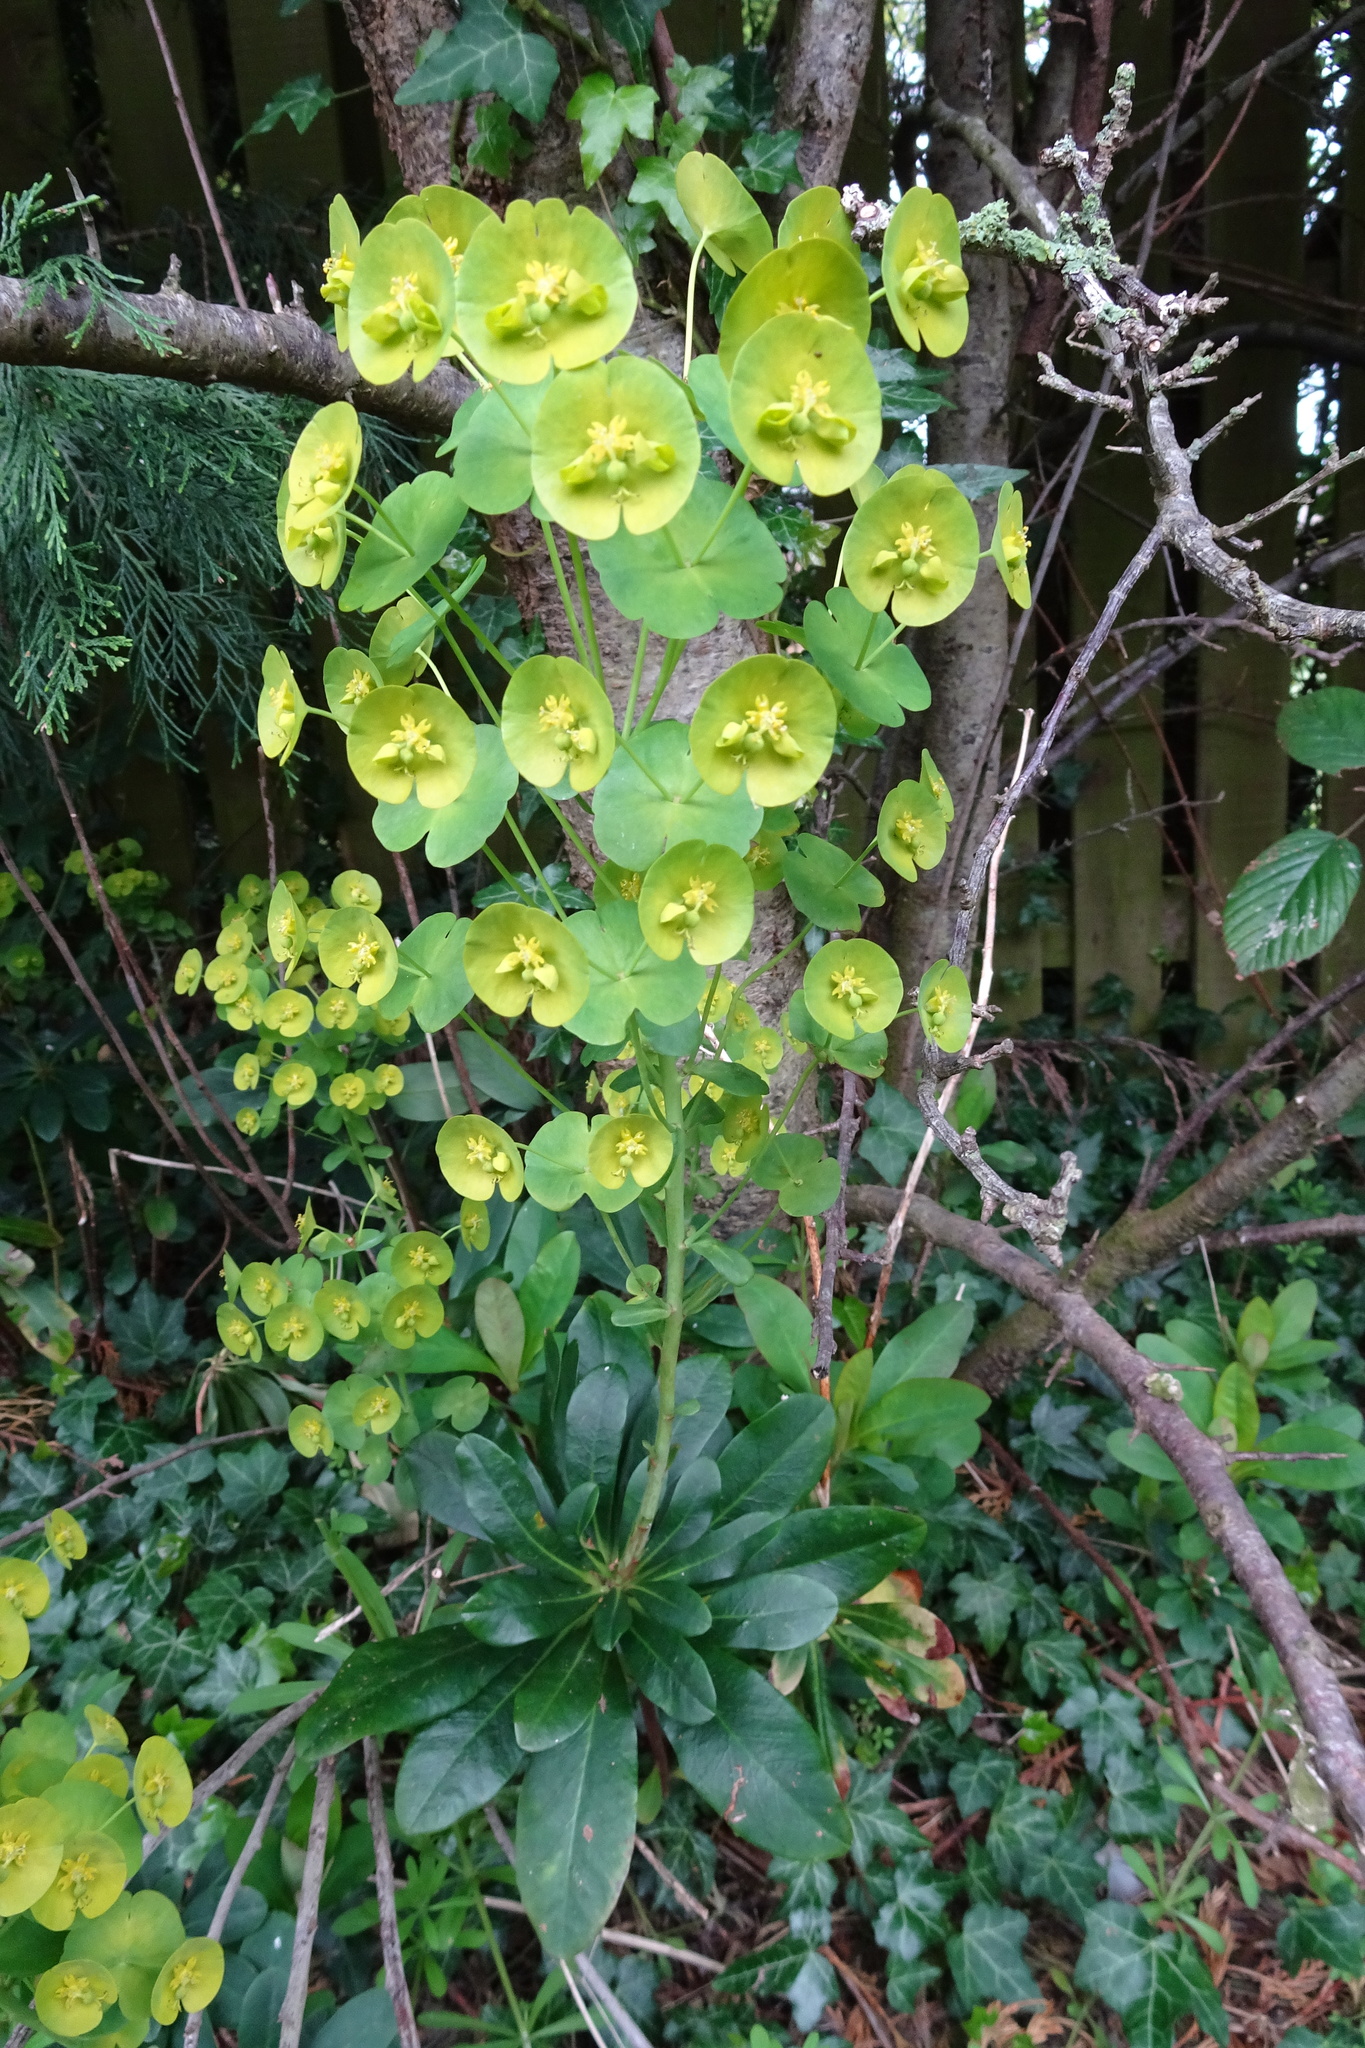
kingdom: Plantae
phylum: Tracheophyta
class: Magnoliopsida
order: Malpighiales
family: Euphorbiaceae
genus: Euphorbia
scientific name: Euphorbia amygdaloides
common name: Wood spurge
